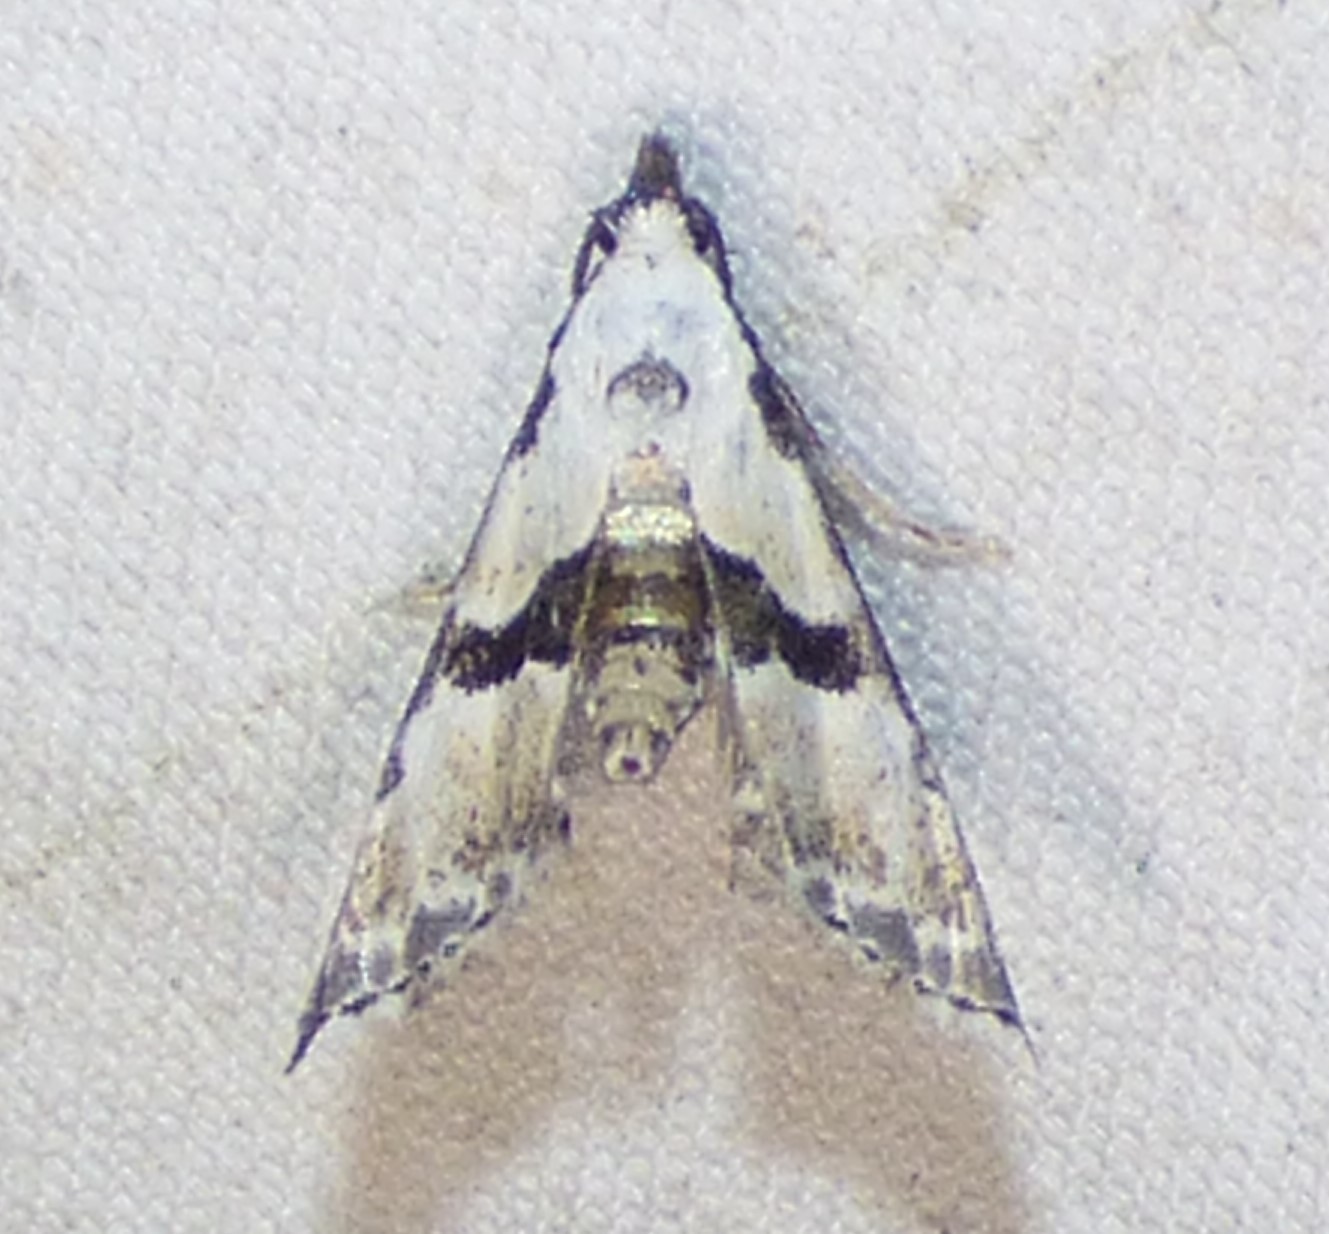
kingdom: Animalia
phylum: Arthropoda
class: Insecta
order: Lepidoptera
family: Noctuidae
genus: Nigetia
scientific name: Nigetia formosalis
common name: Thin-winged owlet
